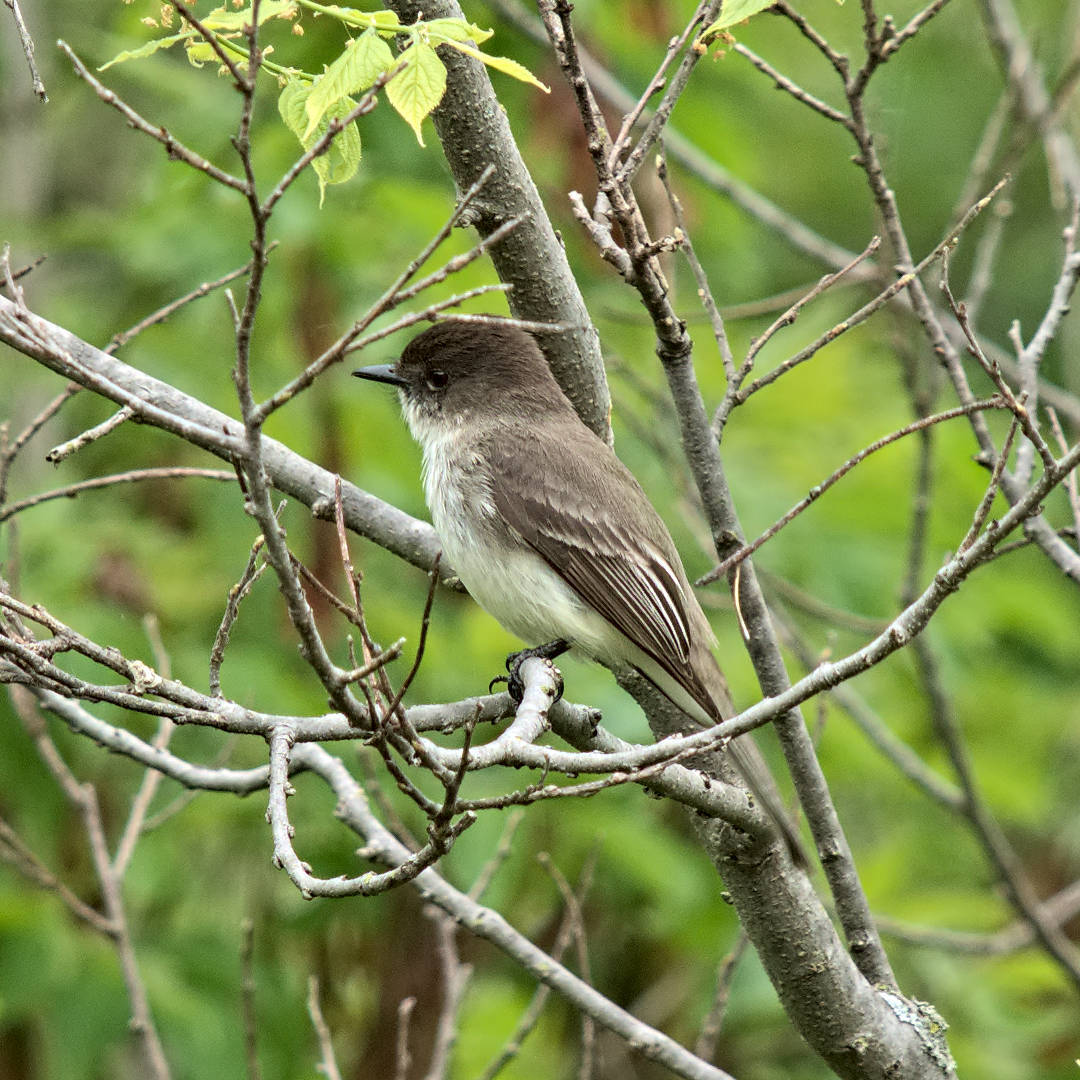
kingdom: Animalia
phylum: Chordata
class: Aves
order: Passeriformes
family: Tyrannidae
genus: Sayornis
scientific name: Sayornis phoebe
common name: Eastern phoebe
